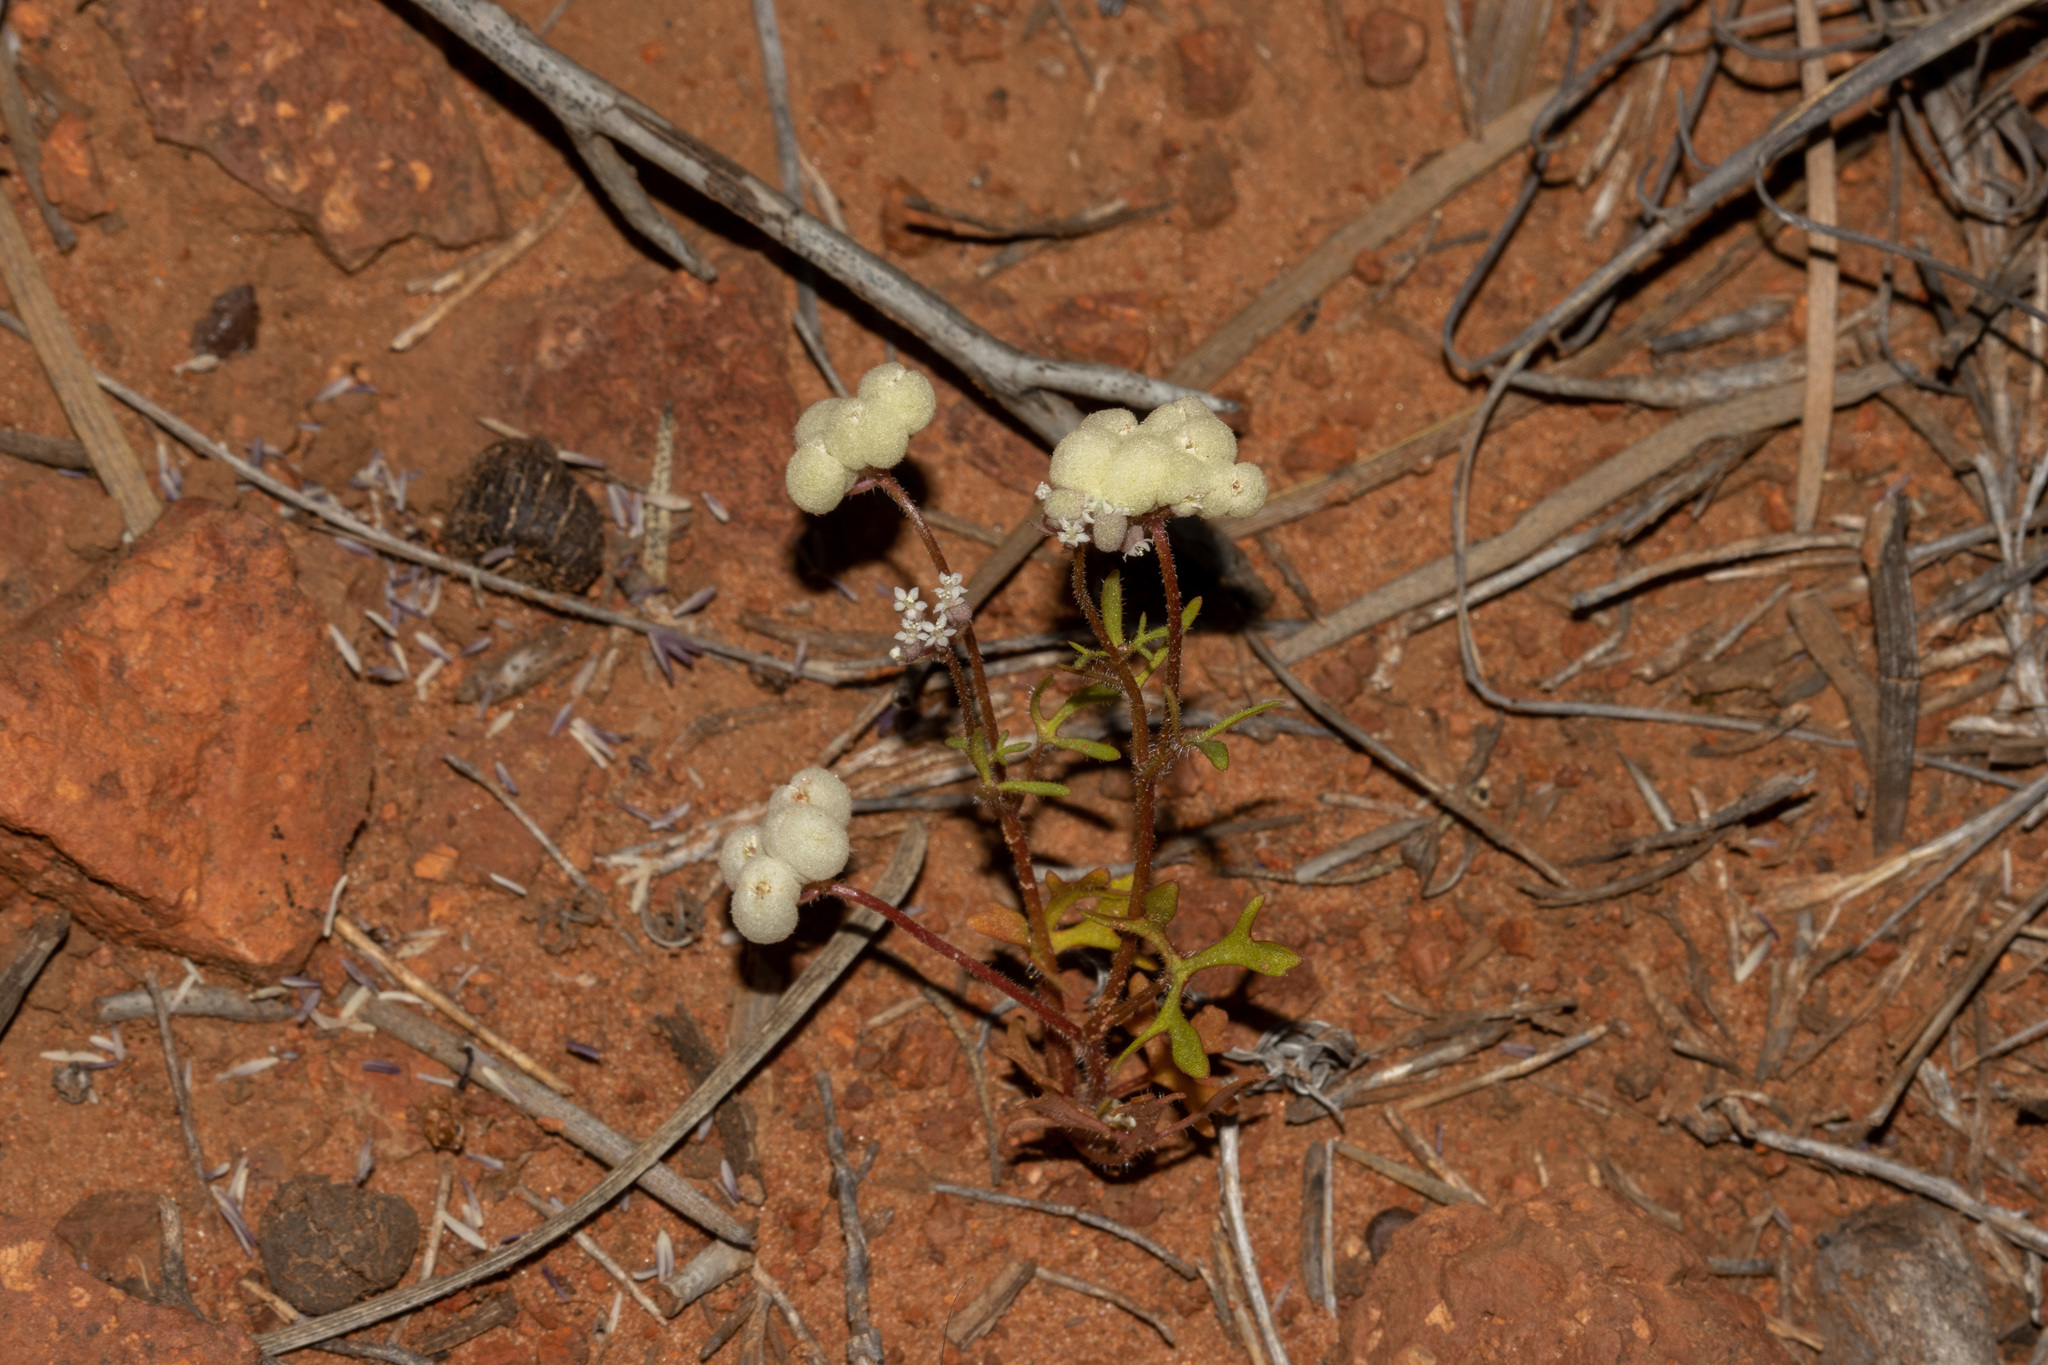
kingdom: Plantae
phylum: Tracheophyta
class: Magnoliopsida
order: Apiales
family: Araliaceae
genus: Trachymene
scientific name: Trachymene ornata
